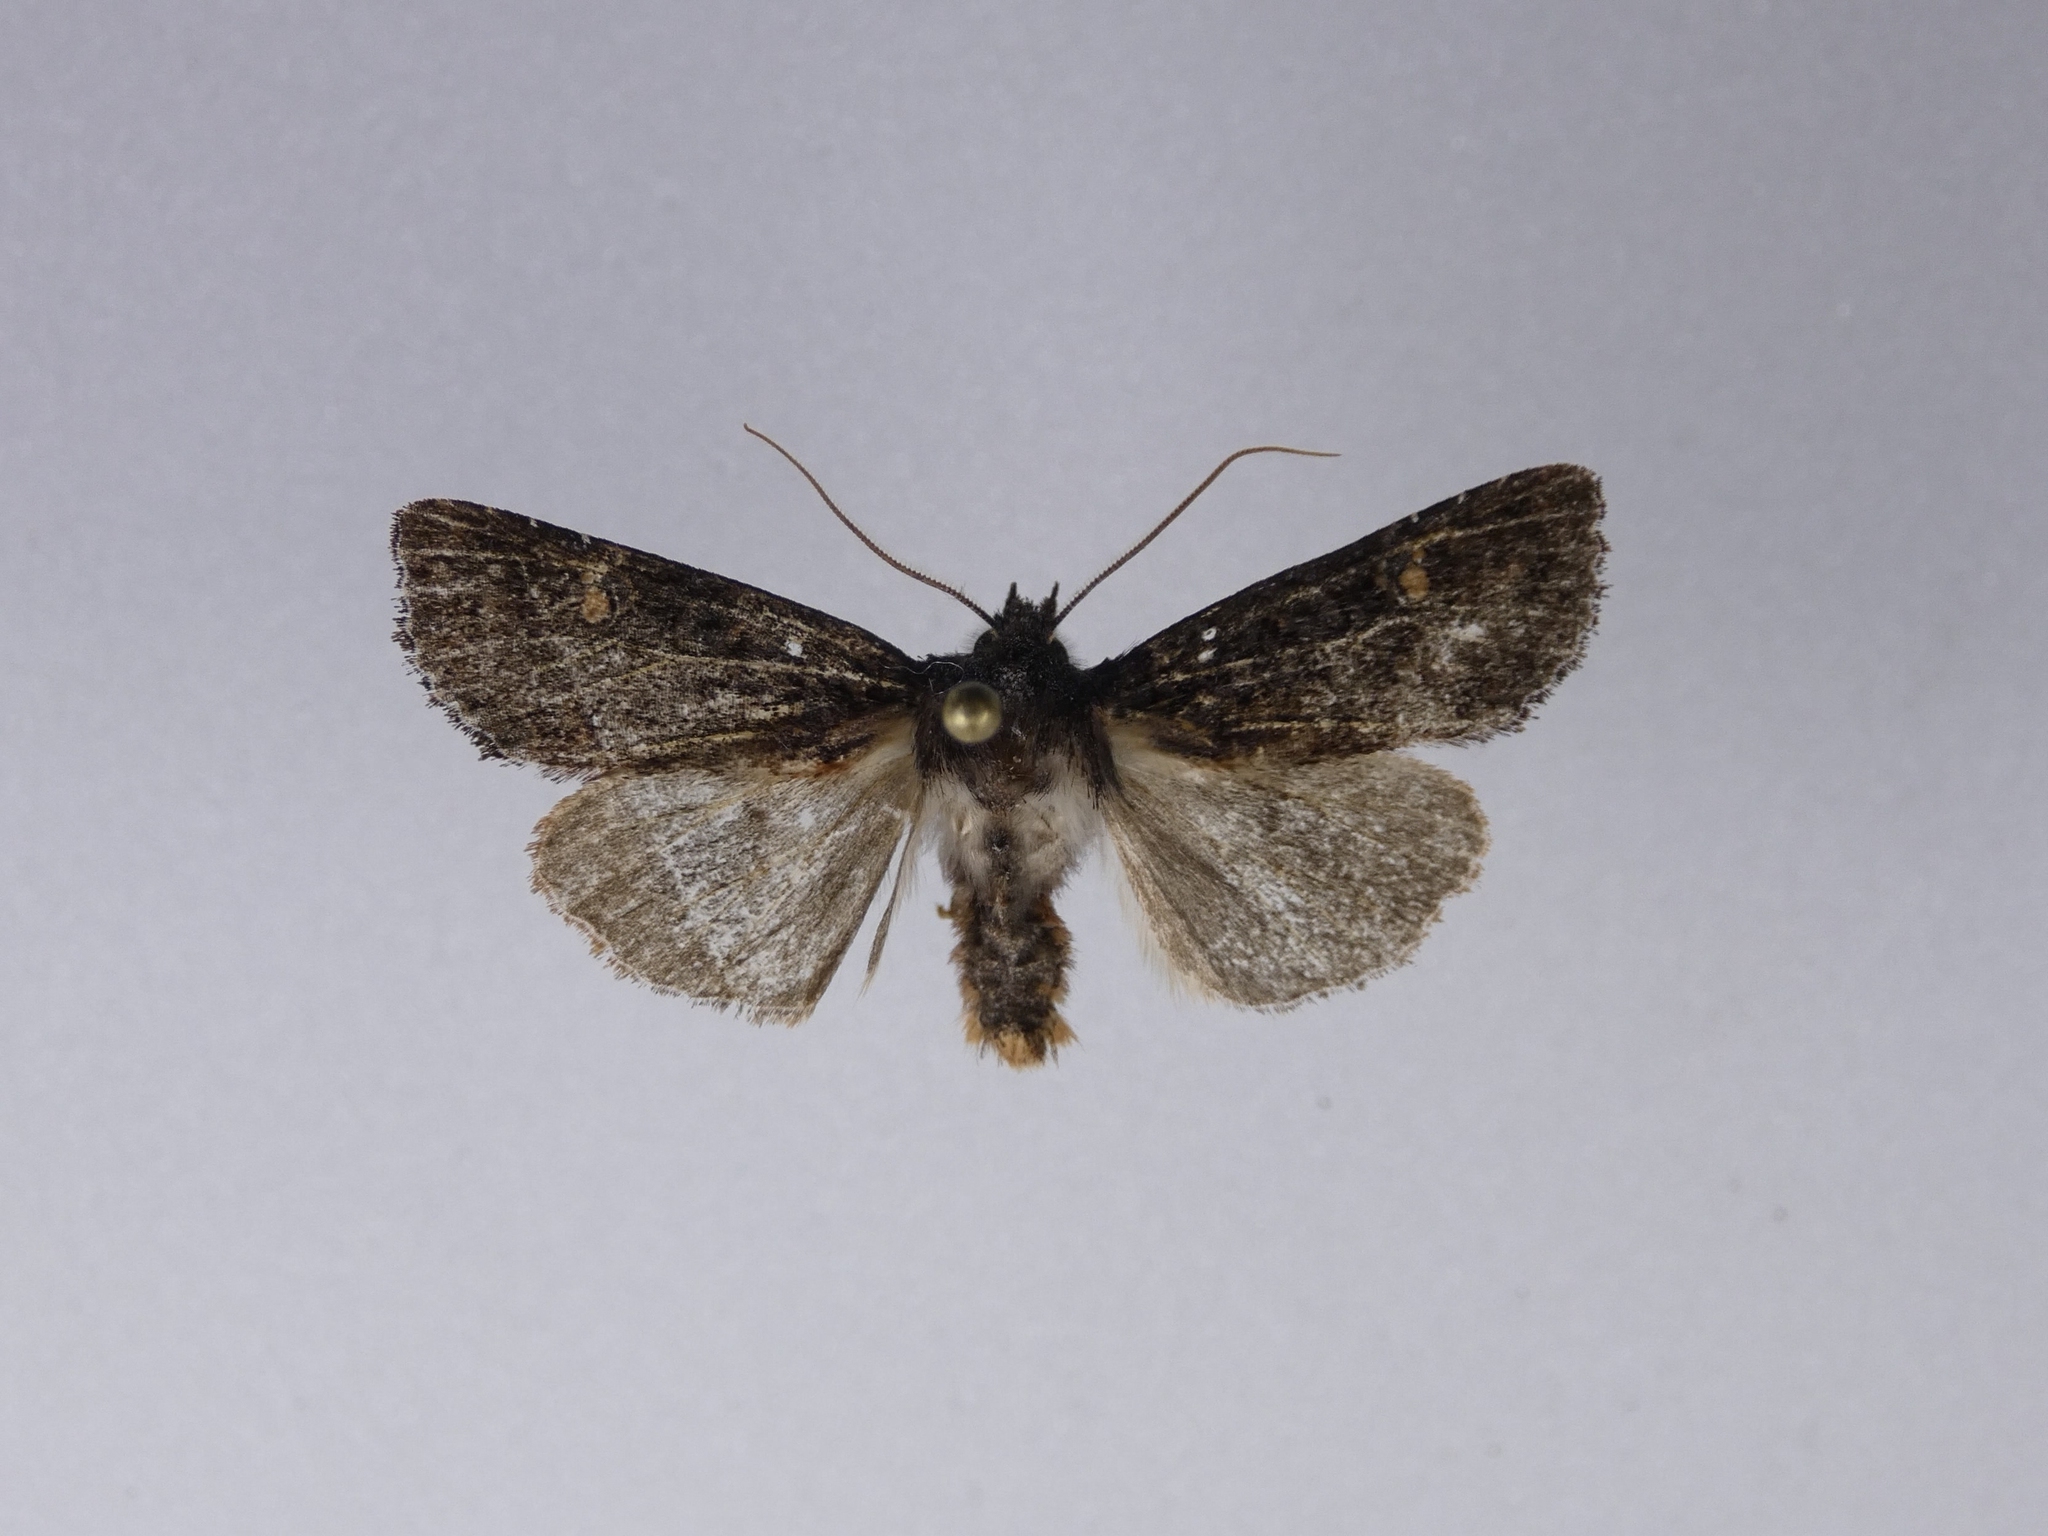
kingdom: Animalia
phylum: Arthropoda
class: Insecta
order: Lepidoptera
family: Noctuidae
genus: Meterana
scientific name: Meterana vitiosa
